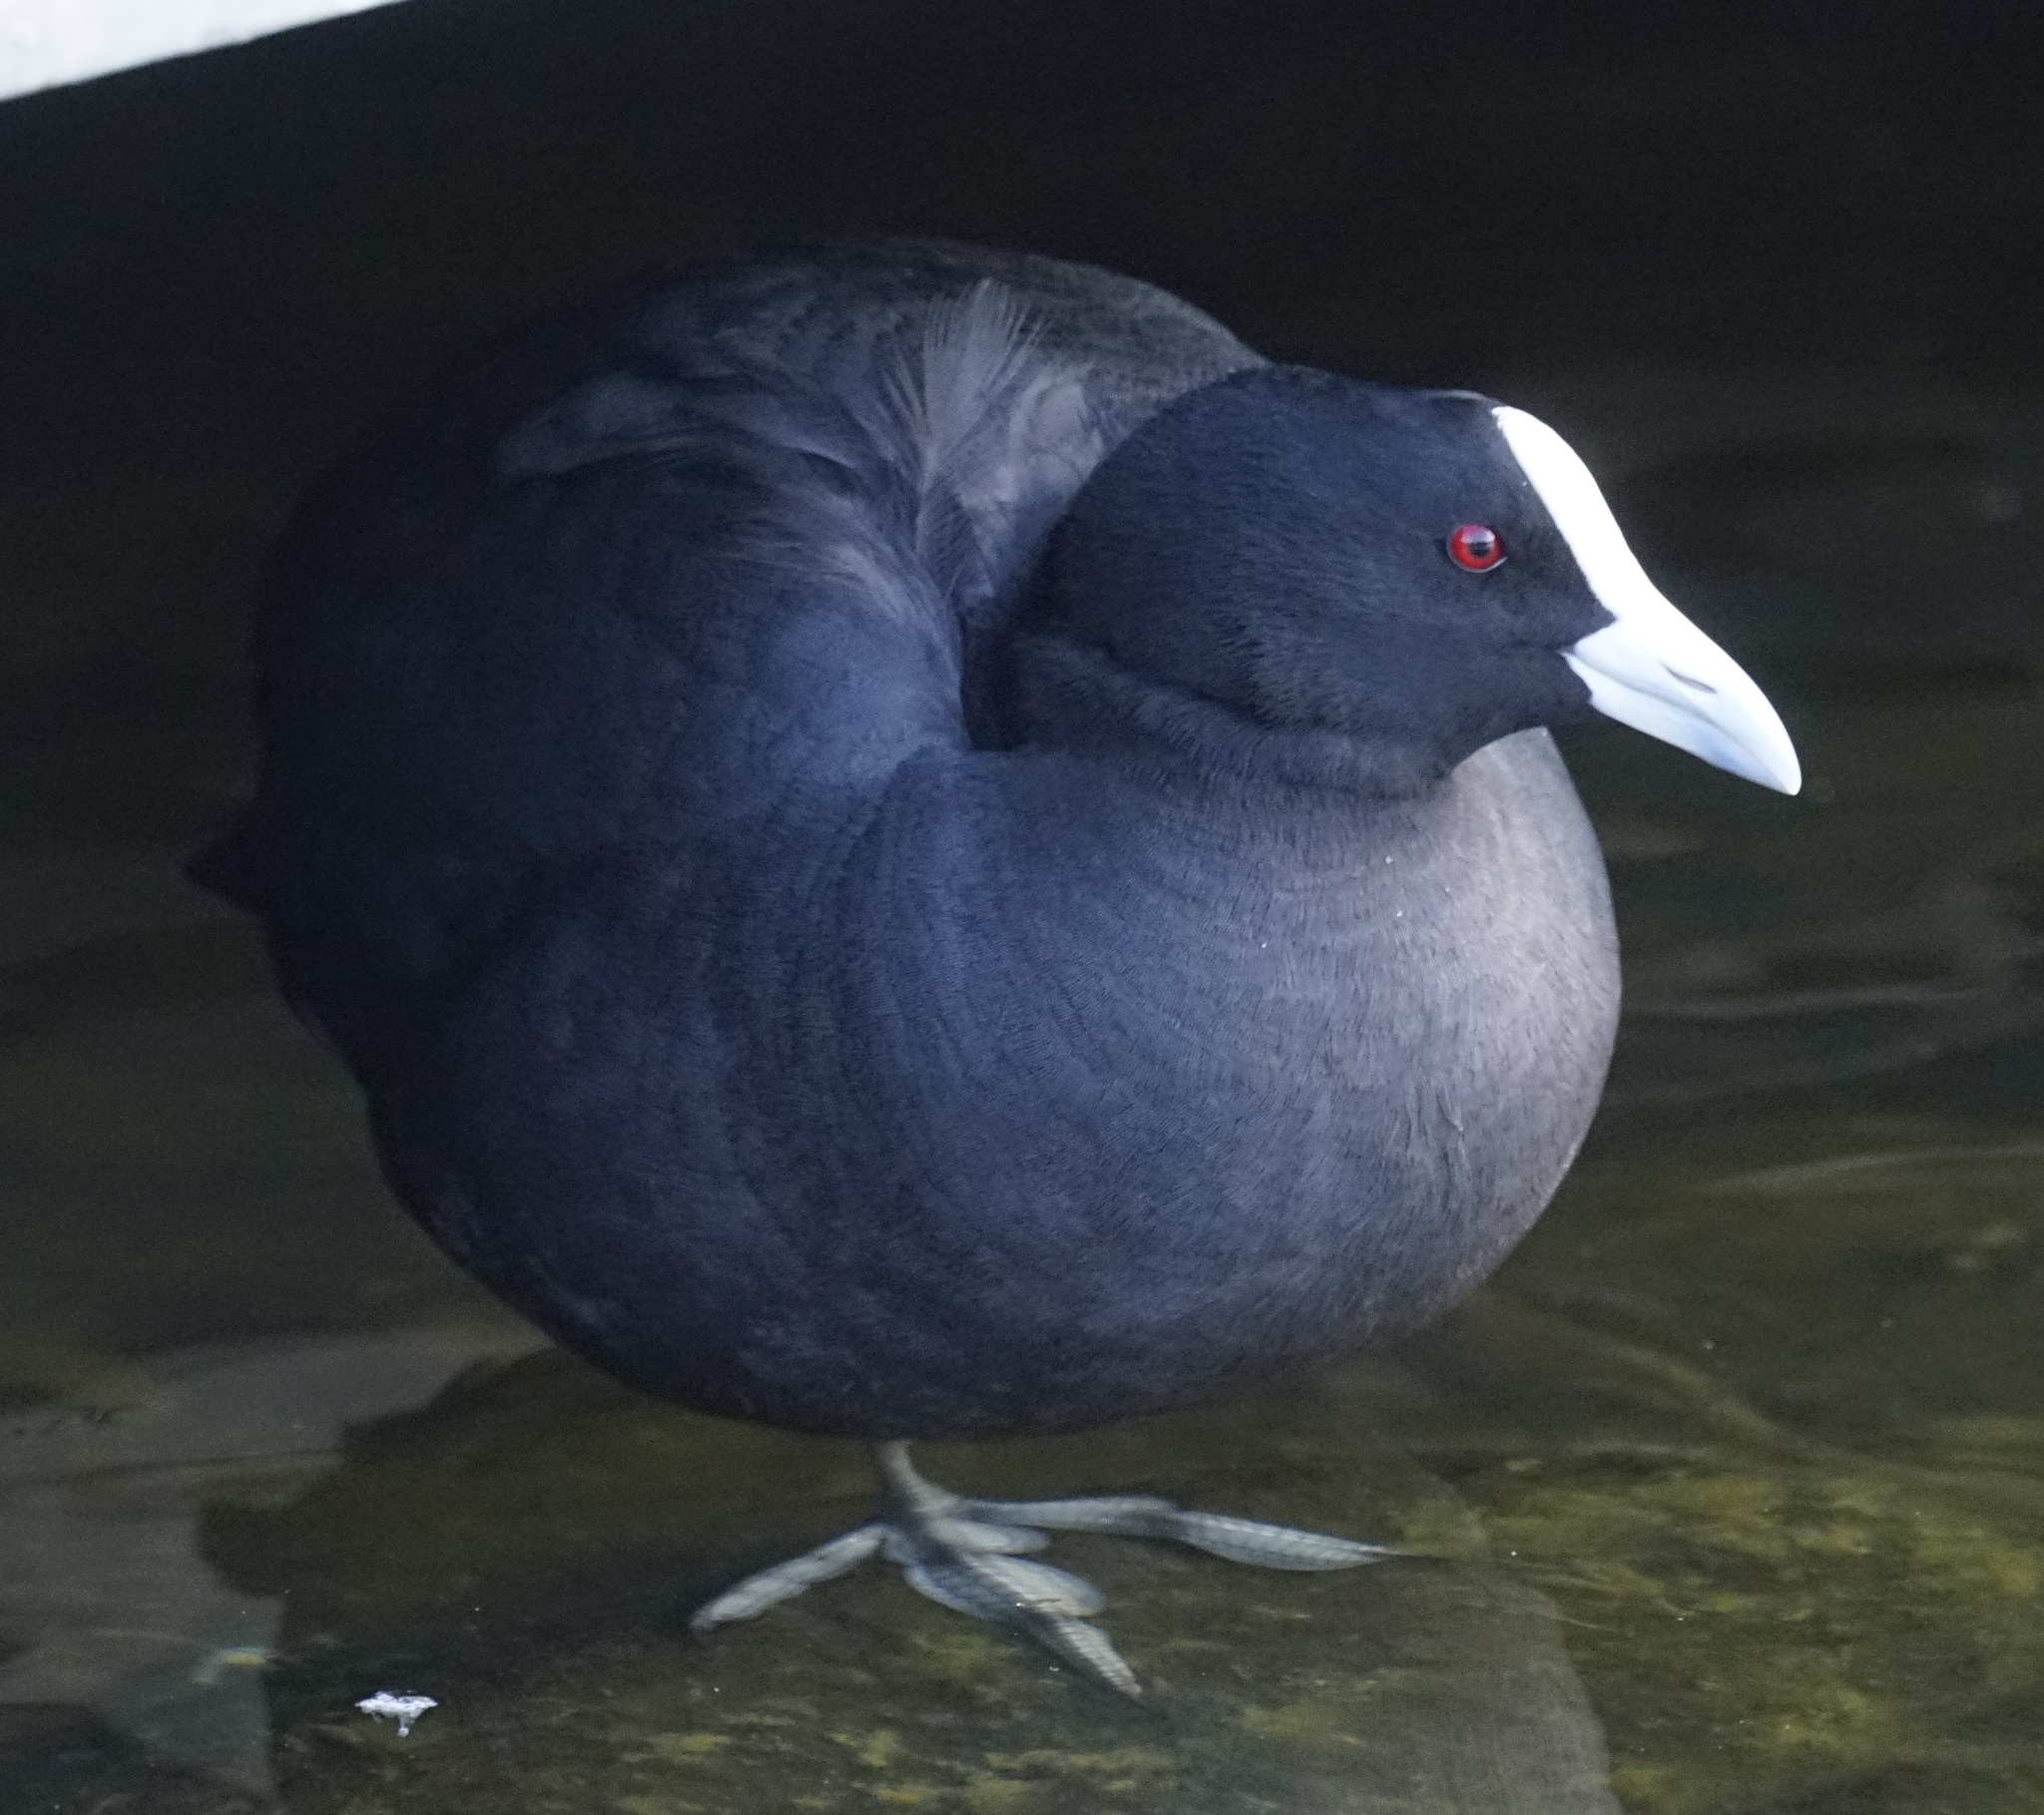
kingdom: Animalia
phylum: Chordata
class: Aves
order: Gruiformes
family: Rallidae
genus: Fulica
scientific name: Fulica atra
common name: Eurasian coot
